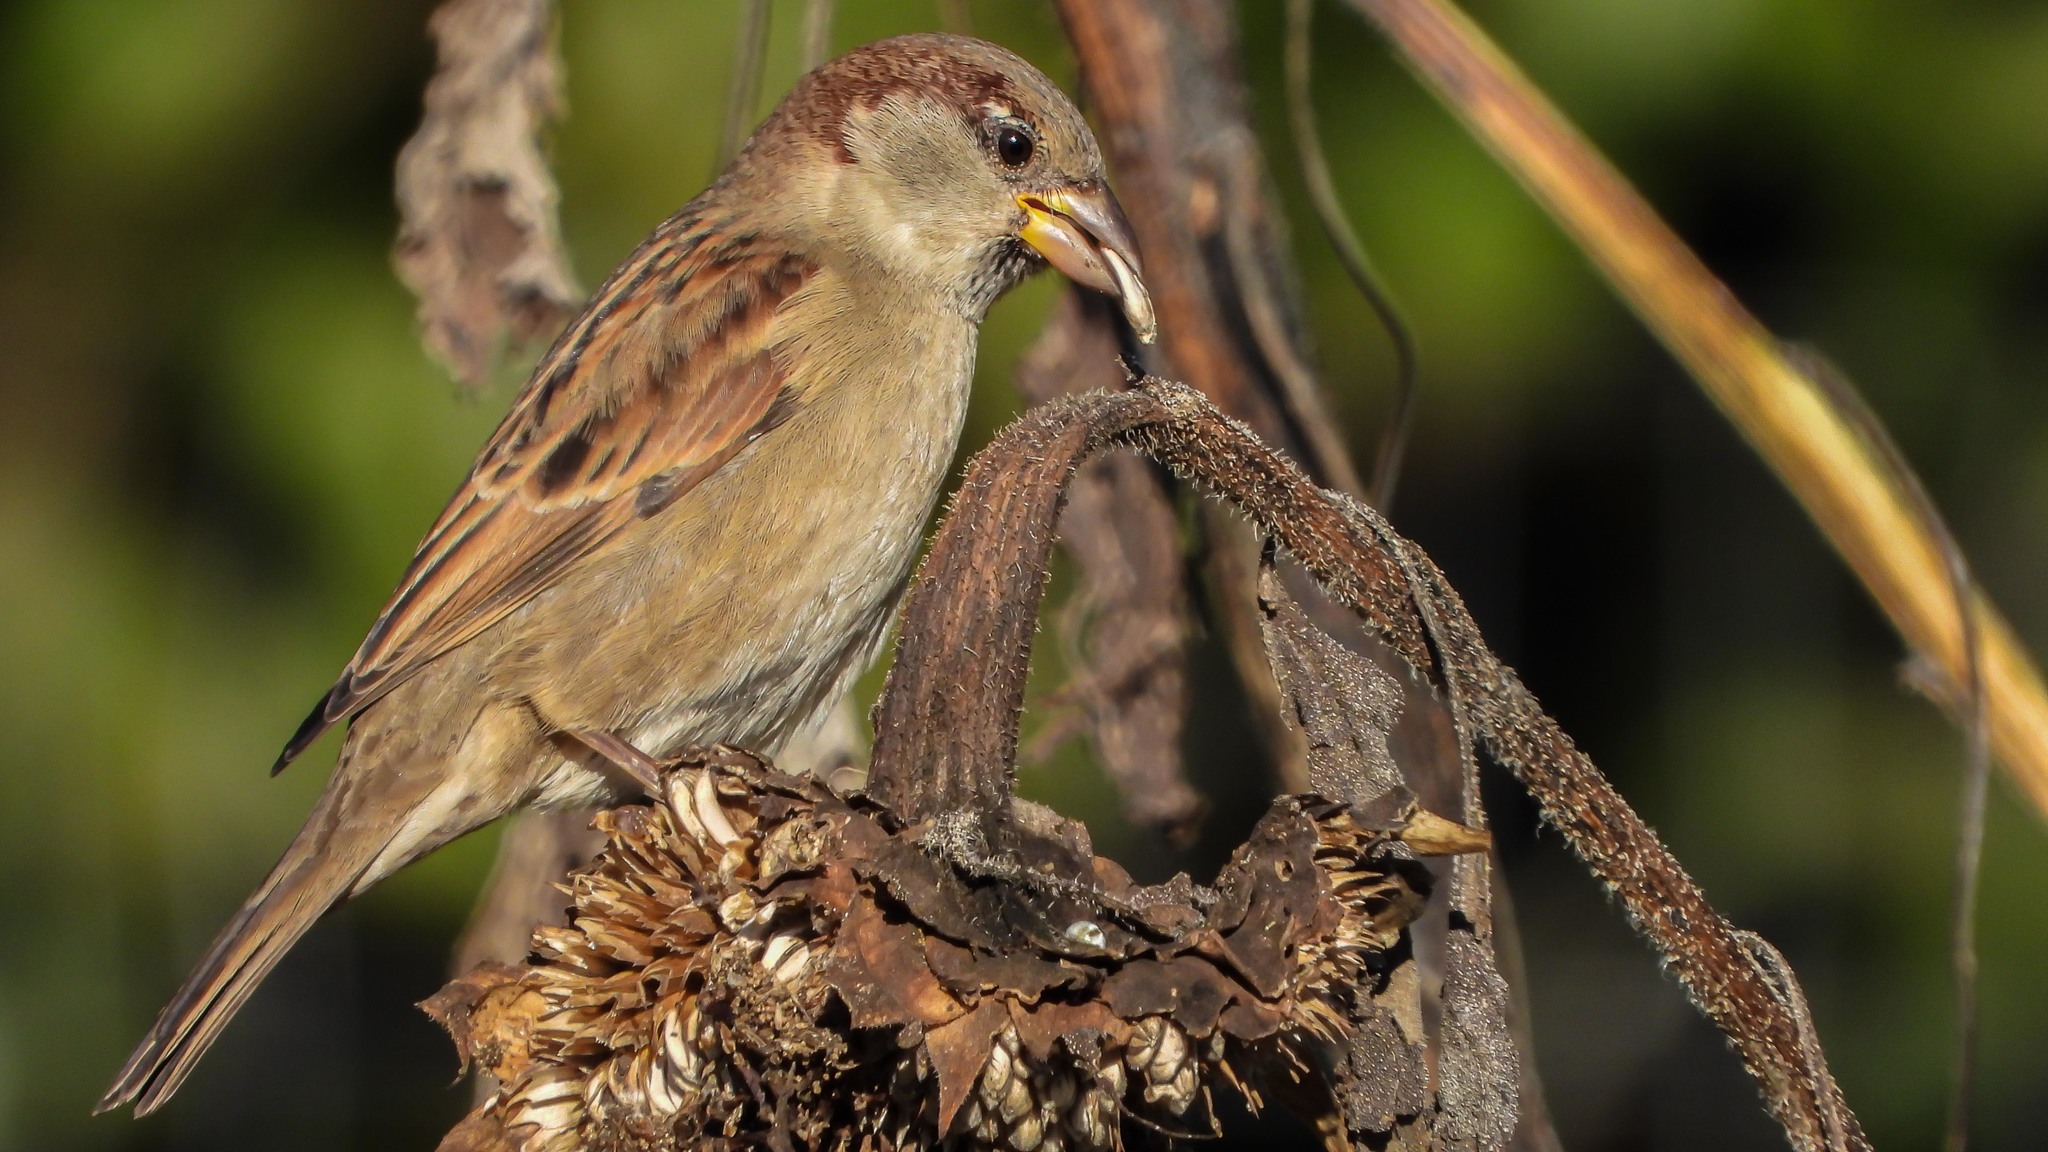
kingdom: Animalia
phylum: Chordata
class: Aves
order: Passeriformes
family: Passeridae
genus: Passer
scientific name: Passer domesticus
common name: House sparrow
